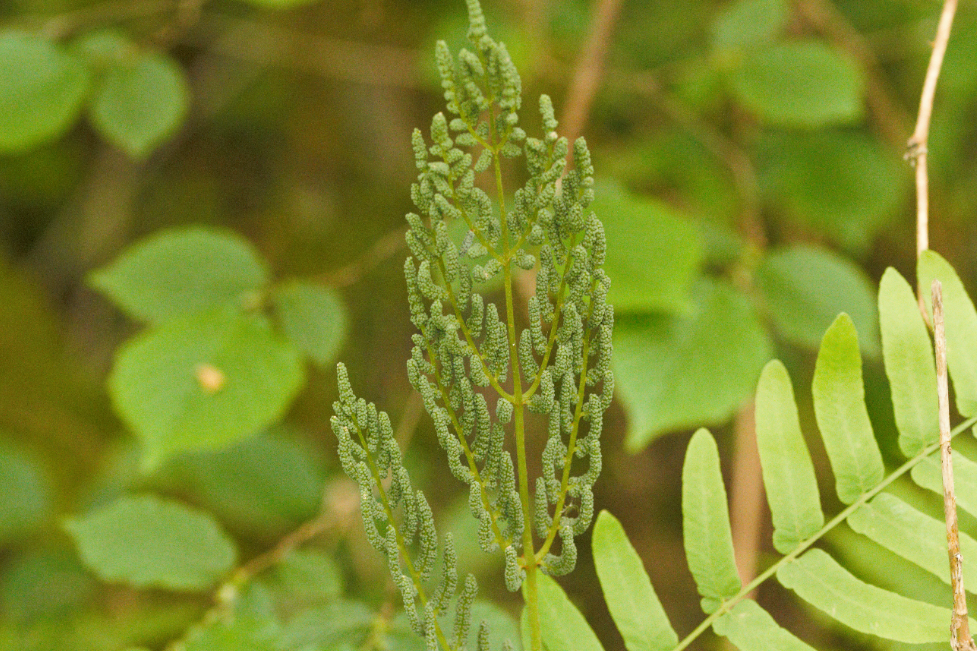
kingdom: Plantae
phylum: Tracheophyta
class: Polypodiopsida
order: Osmundales
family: Osmundaceae
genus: Osmunda
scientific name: Osmunda regalis
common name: Royal fern
